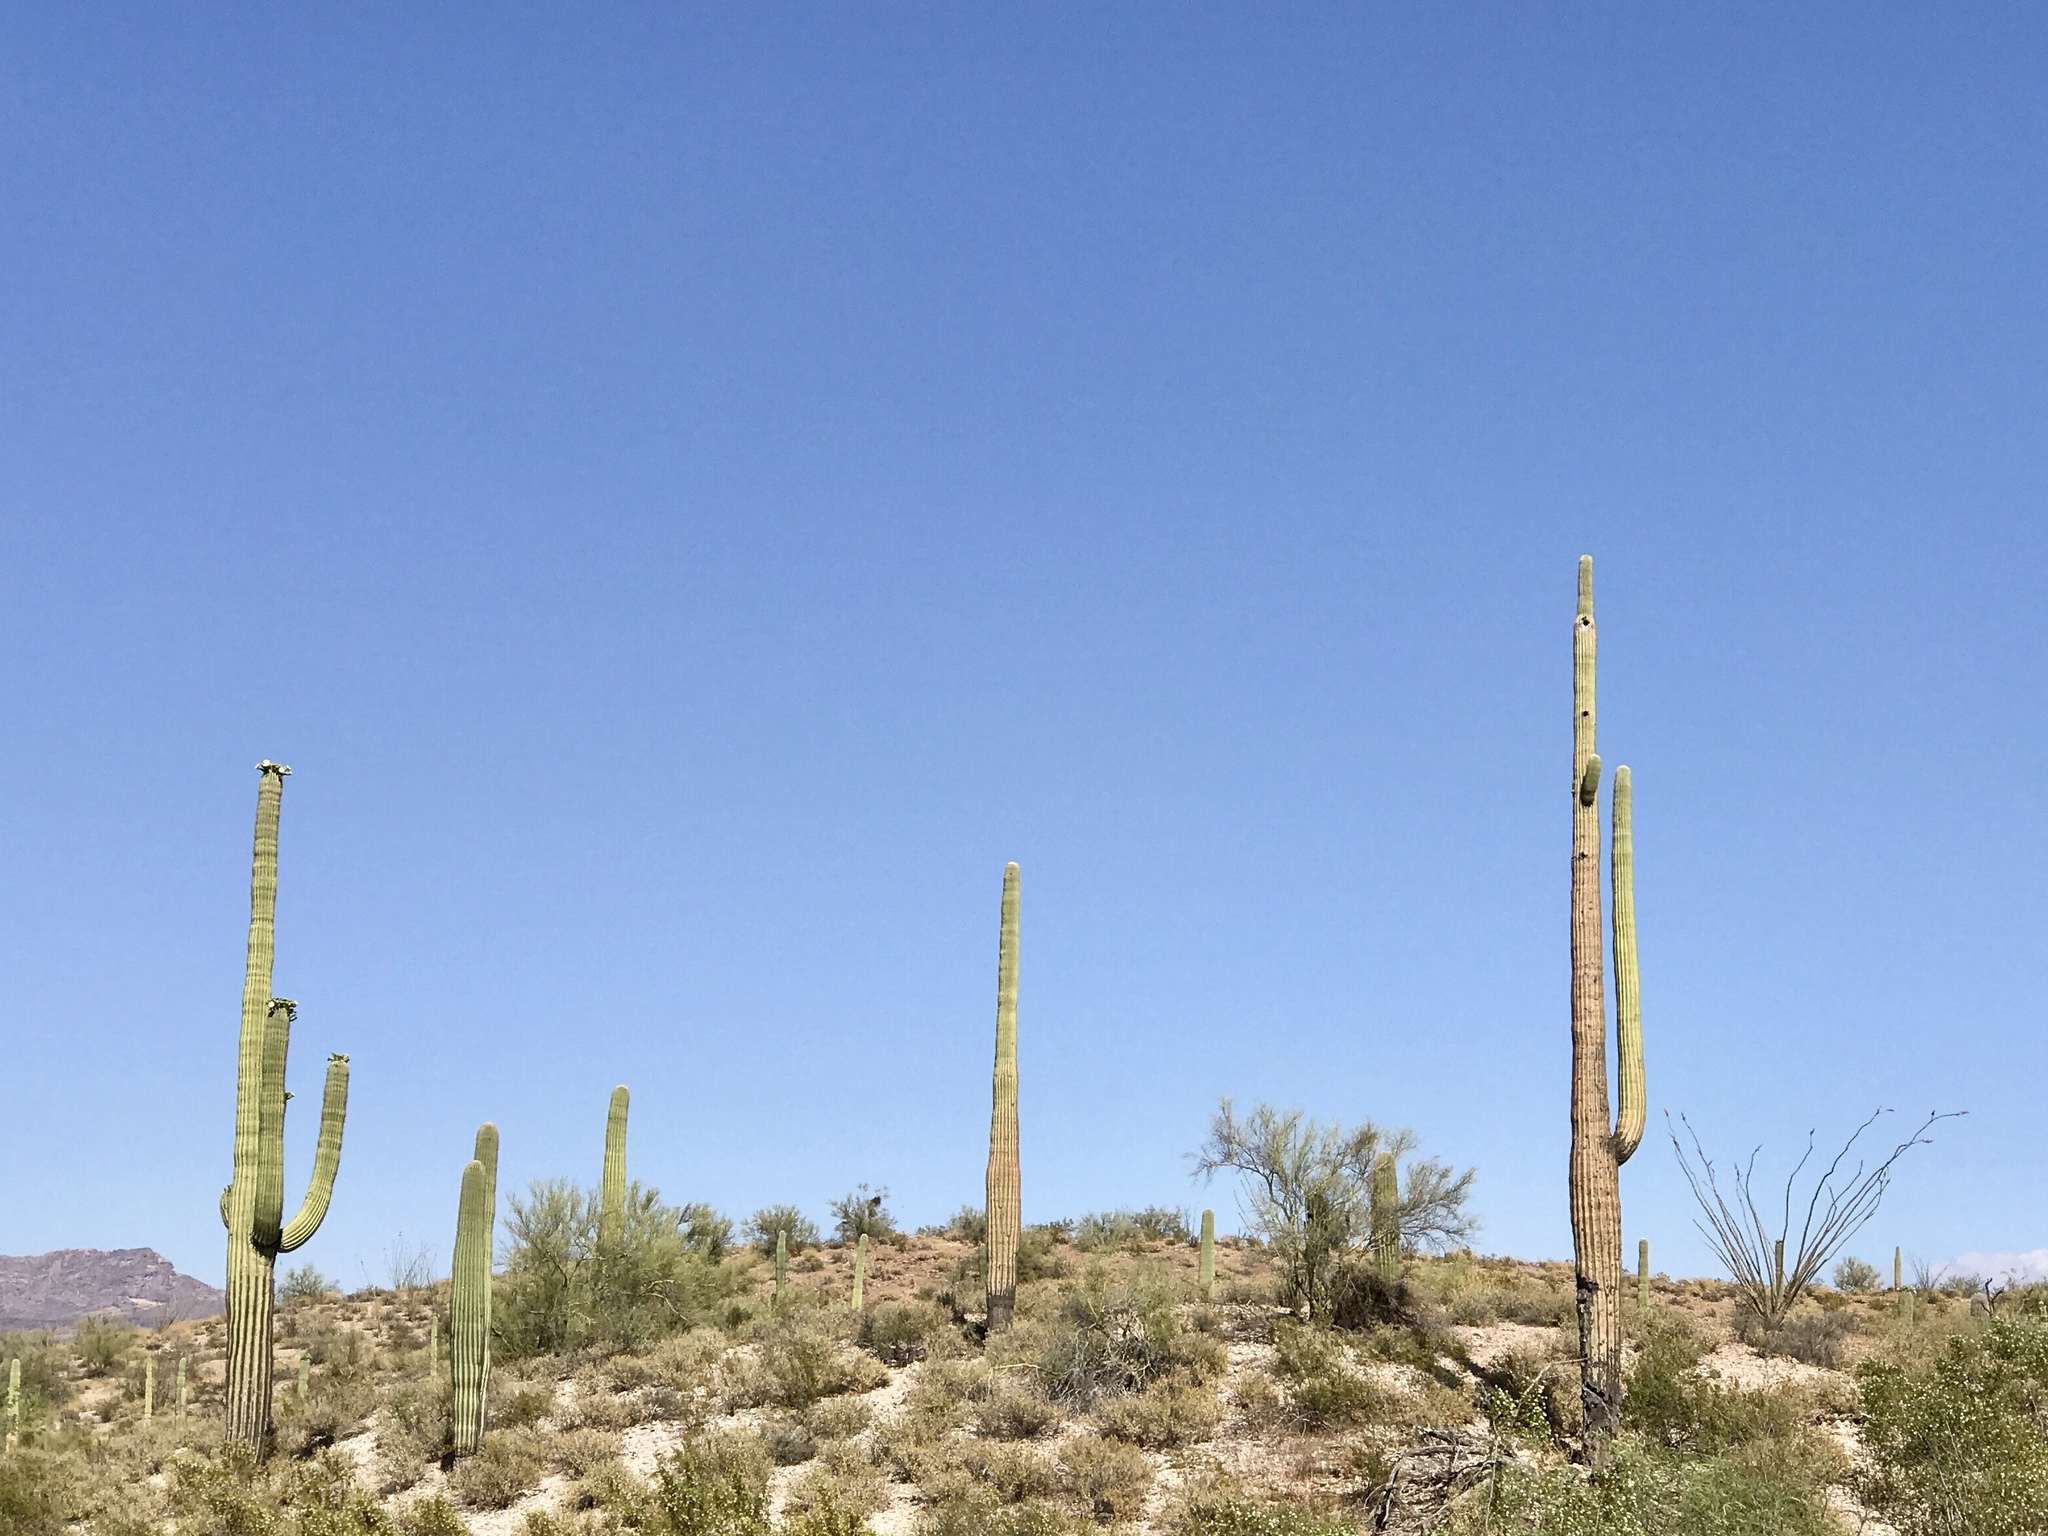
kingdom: Plantae
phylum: Tracheophyta
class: Magnoliopsida
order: Caryophyllales
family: Cactaceae
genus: Carnegiea
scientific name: Carnegiea gigantea
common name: Saguaro
